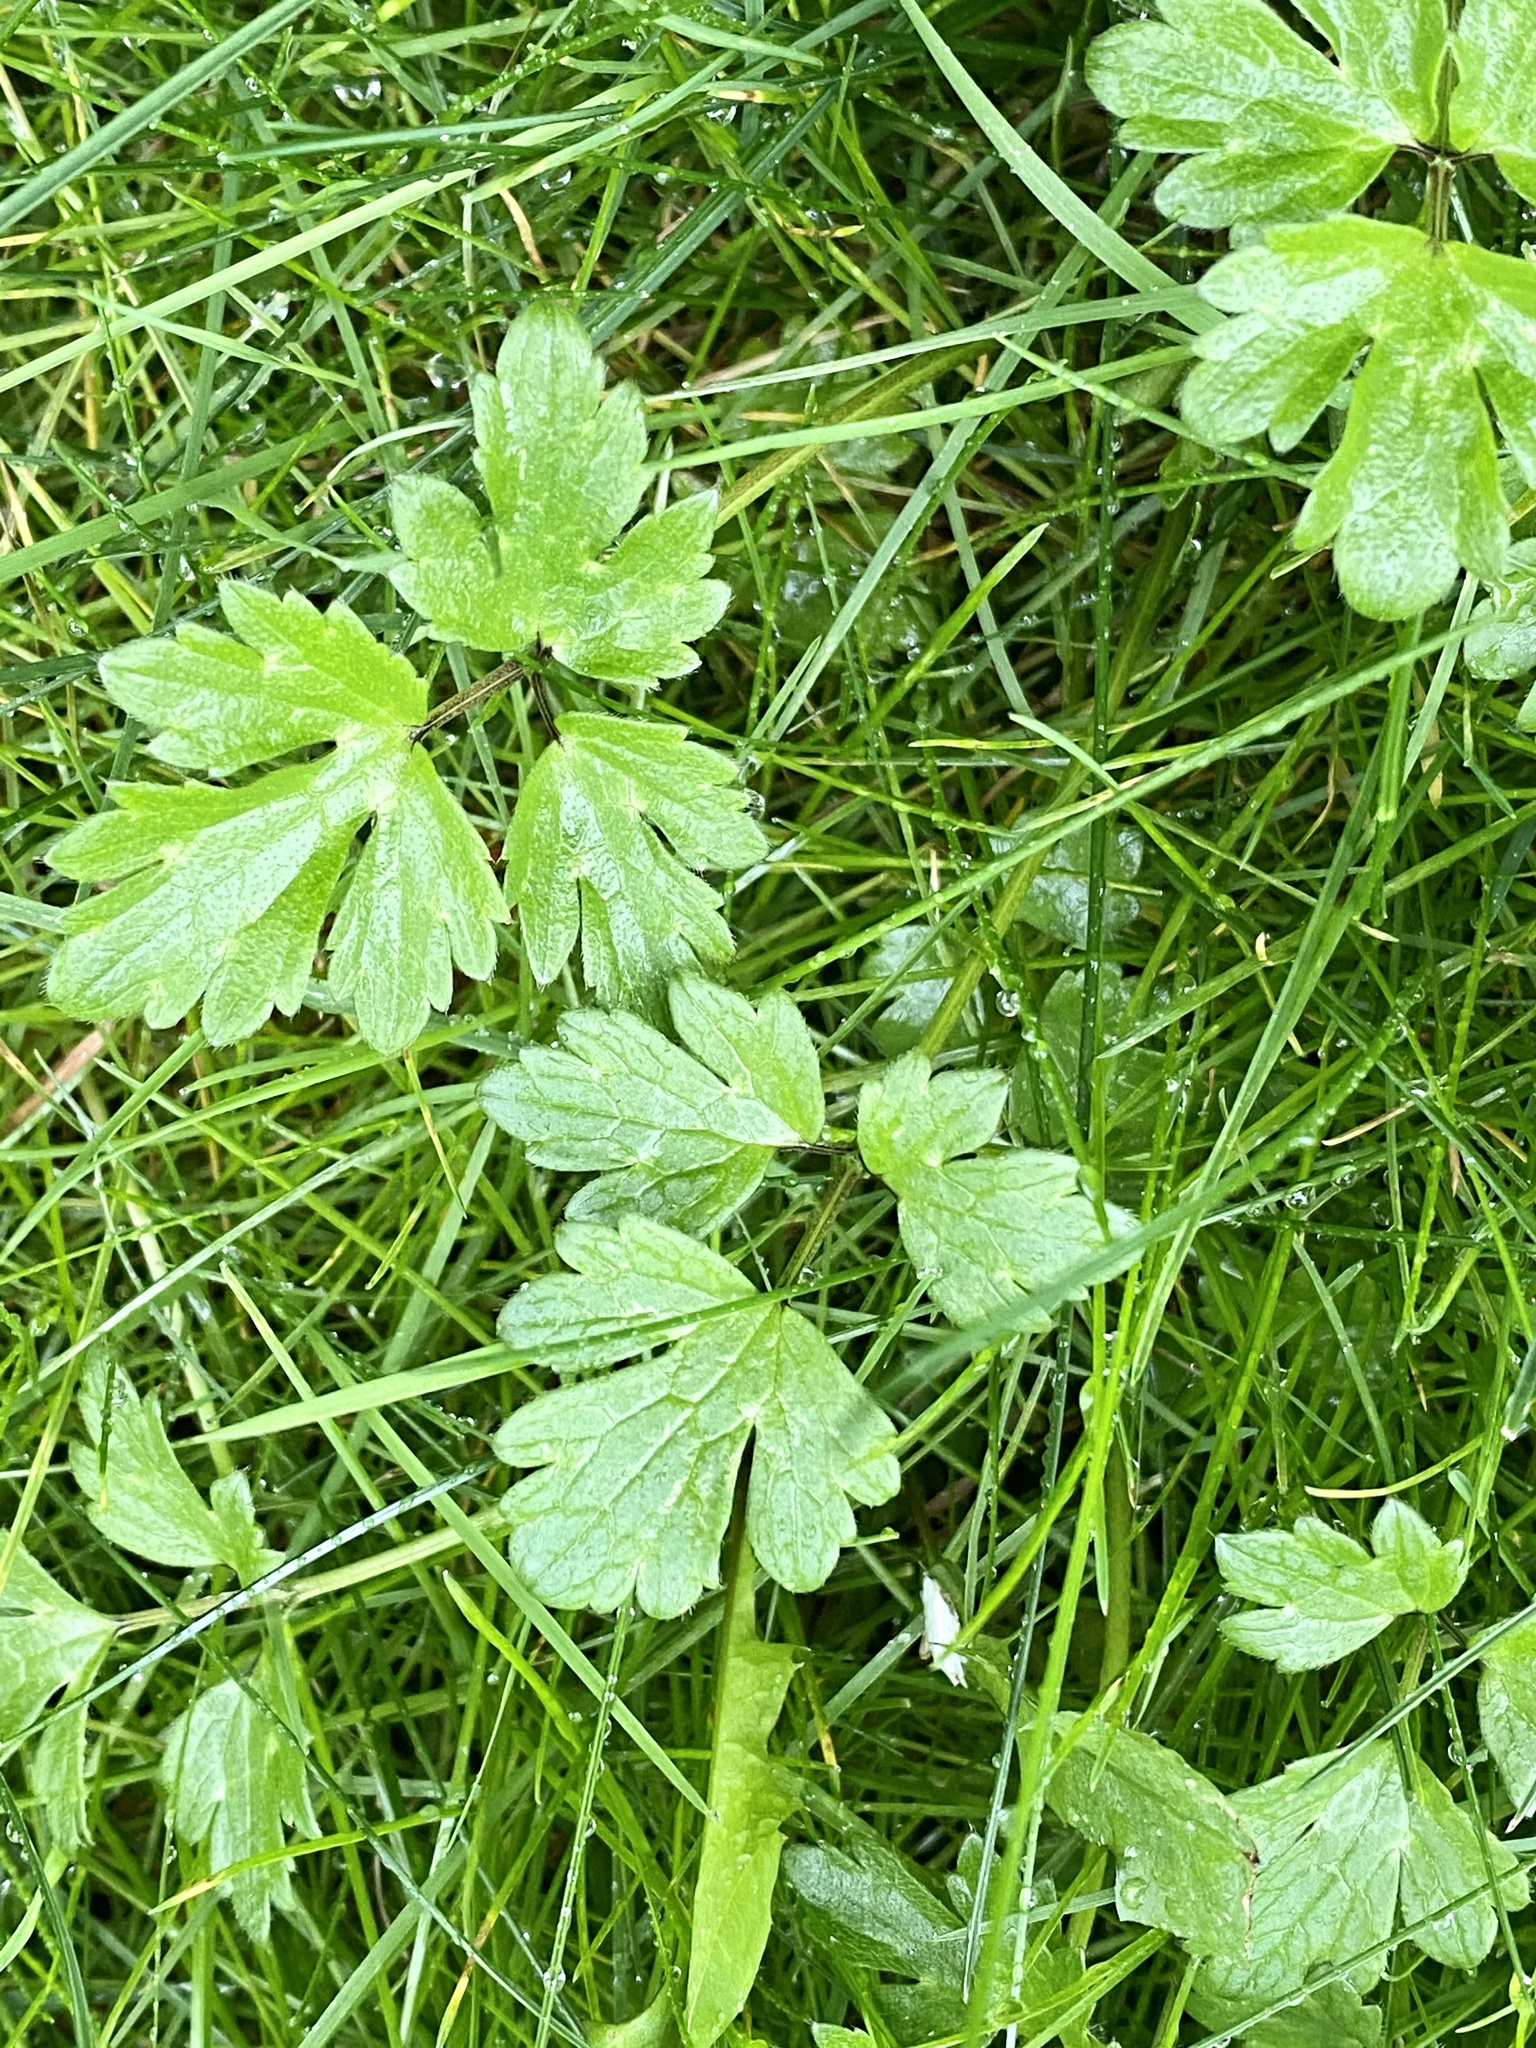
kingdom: Plantae
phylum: Tracheophyta
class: Magnoliopsida
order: Ranunculales
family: Ranunculaceae
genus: Ranunculus
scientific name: Ranunculus repens
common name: Creeping buttercup
